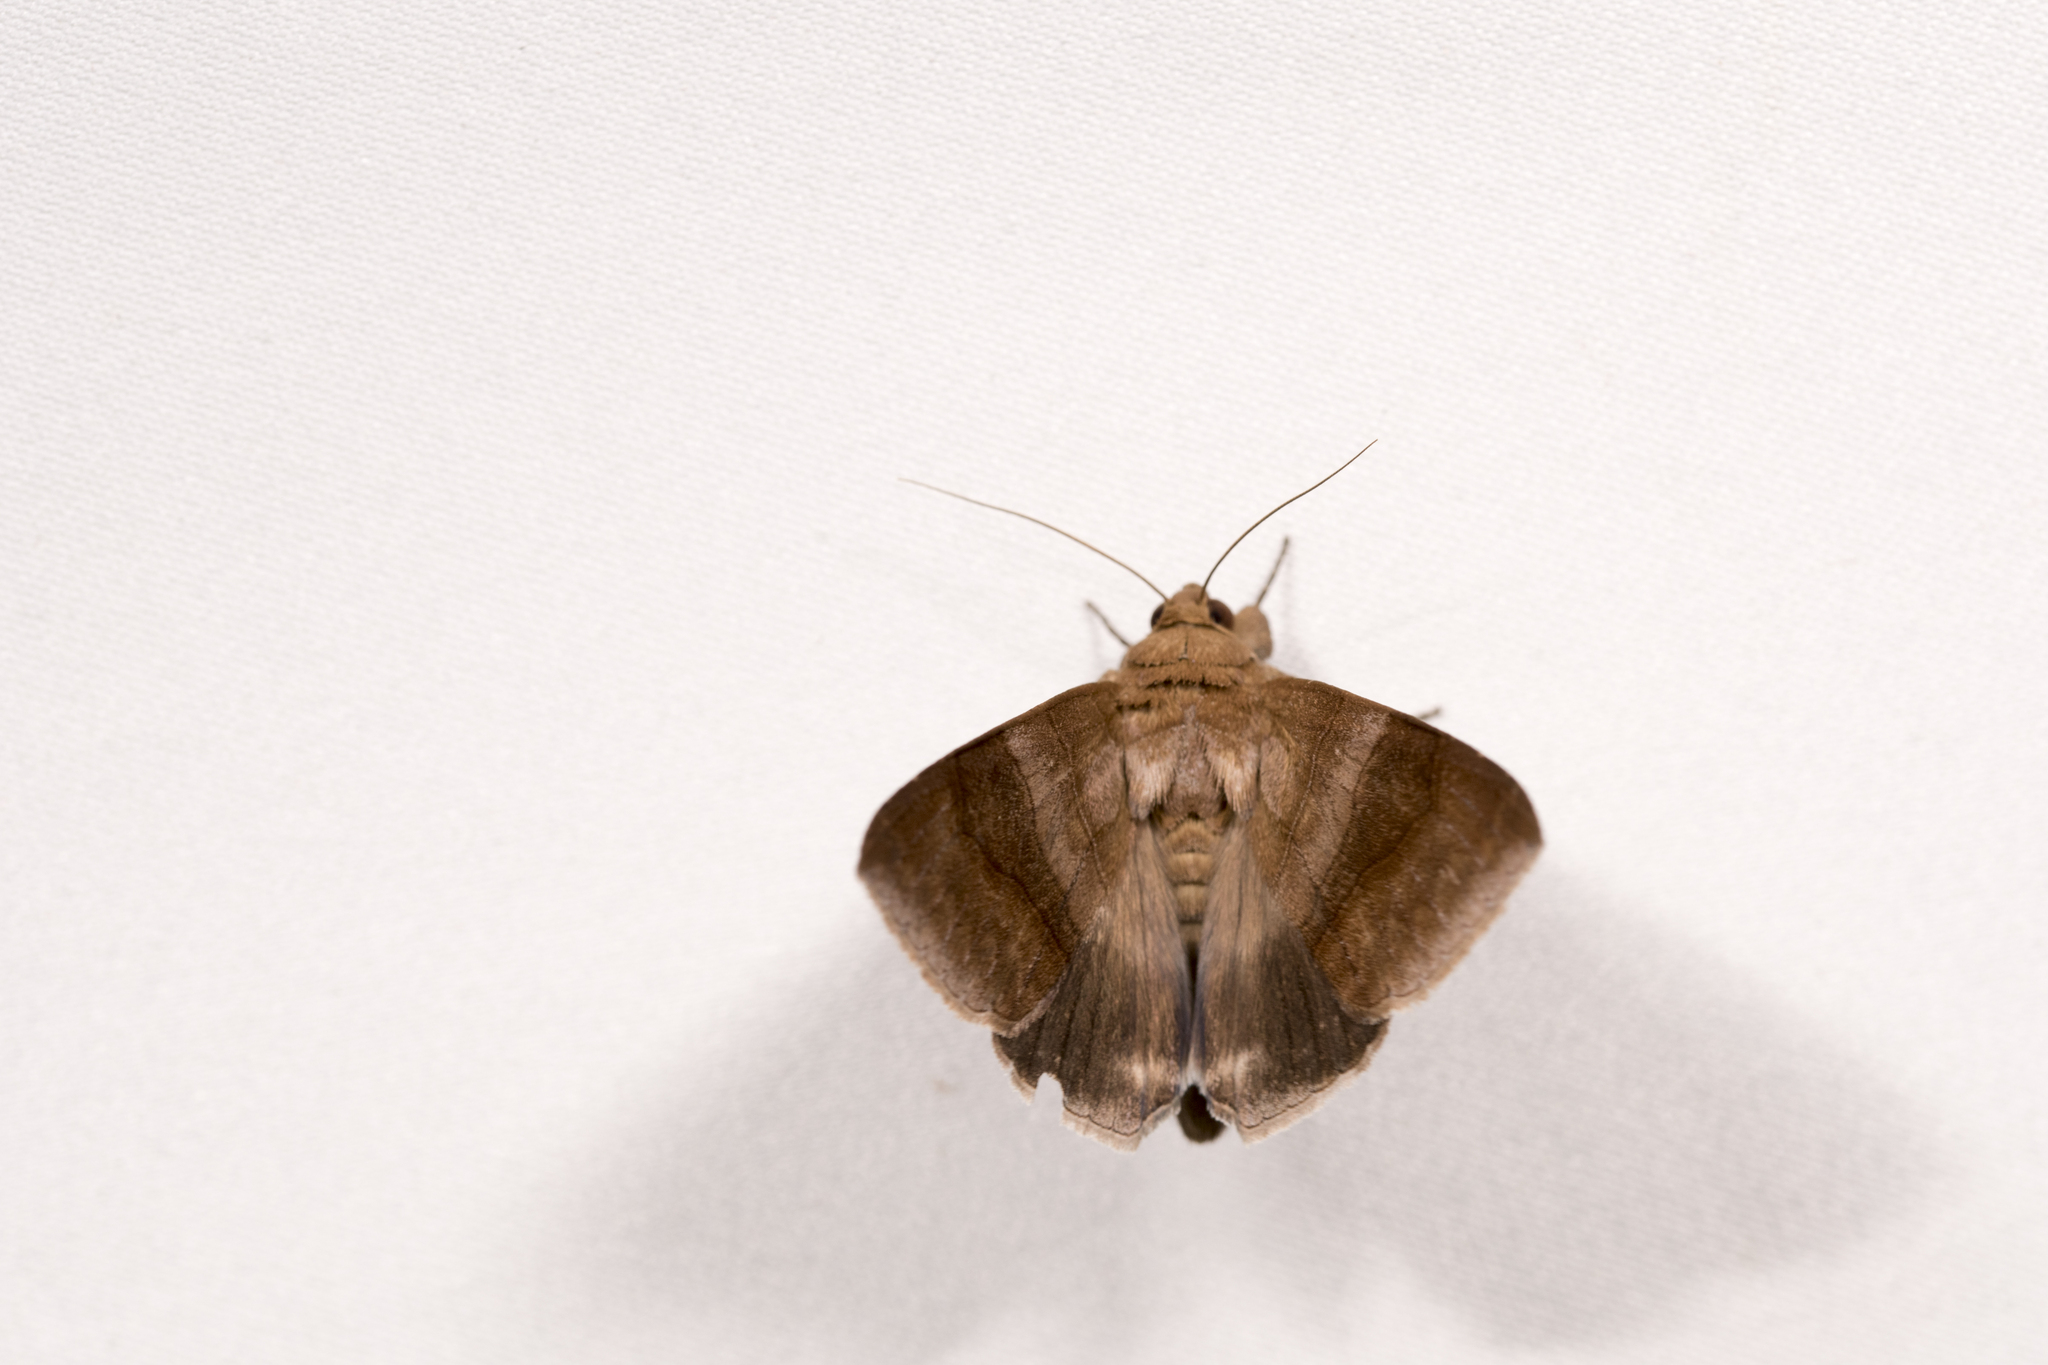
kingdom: Animalia
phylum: Arthropoda
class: Insecta
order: Lepidoptera
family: Erebidae
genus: Bastilla
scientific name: Bastilla absentimacula
